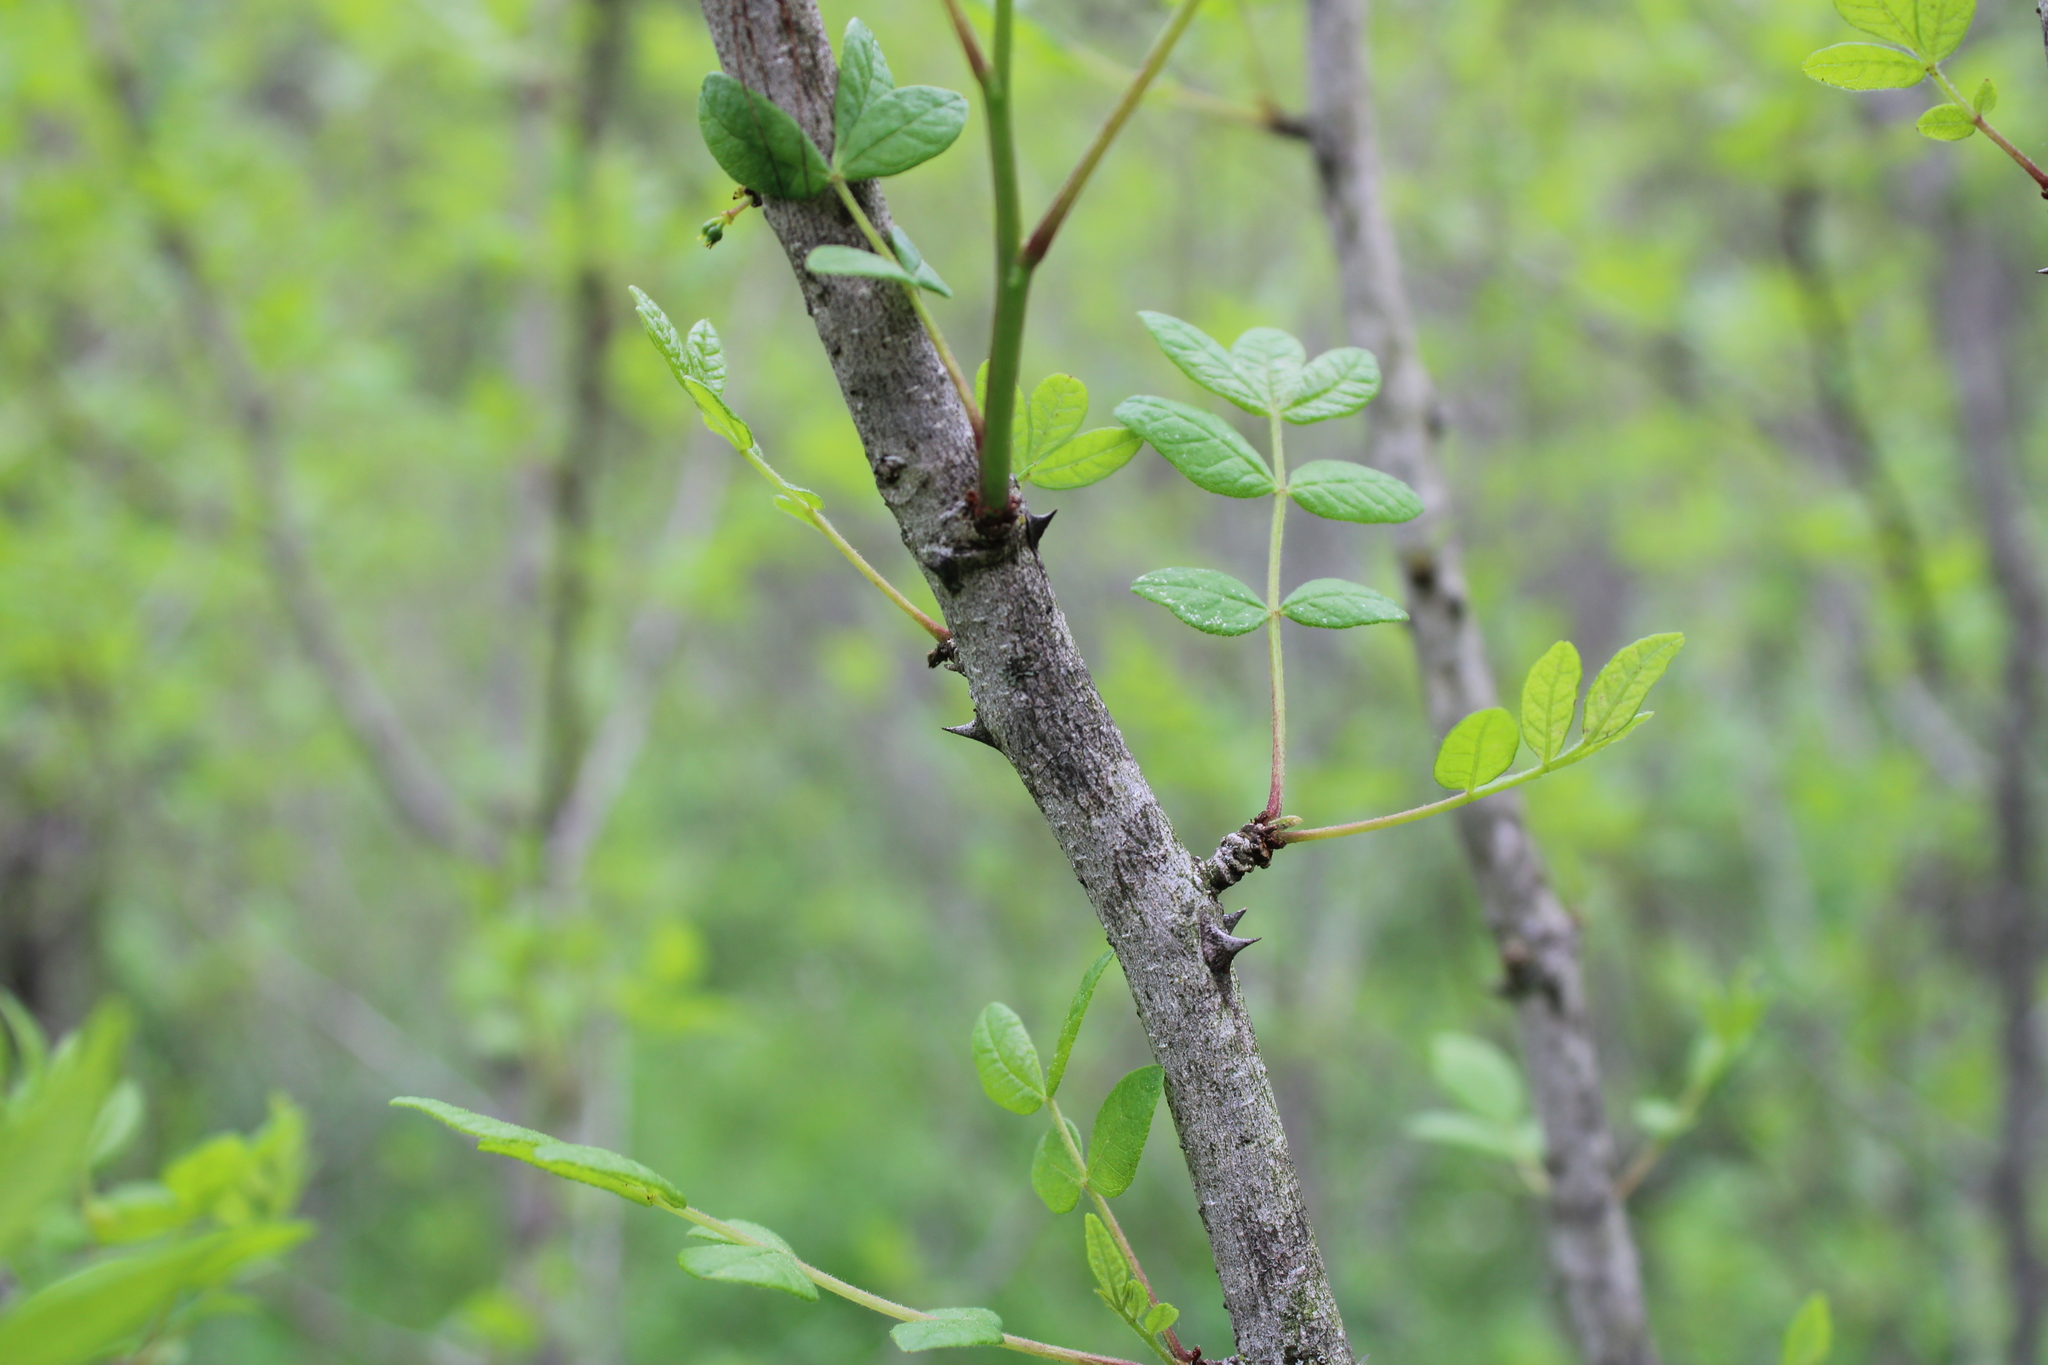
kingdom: Plantae
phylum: Tracheophyta
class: Magnoliopsida
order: Sapindales
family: Rutaceae
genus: Zanthoxylum
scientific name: Zanthoxylum americanum
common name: Northern prickly-ash
